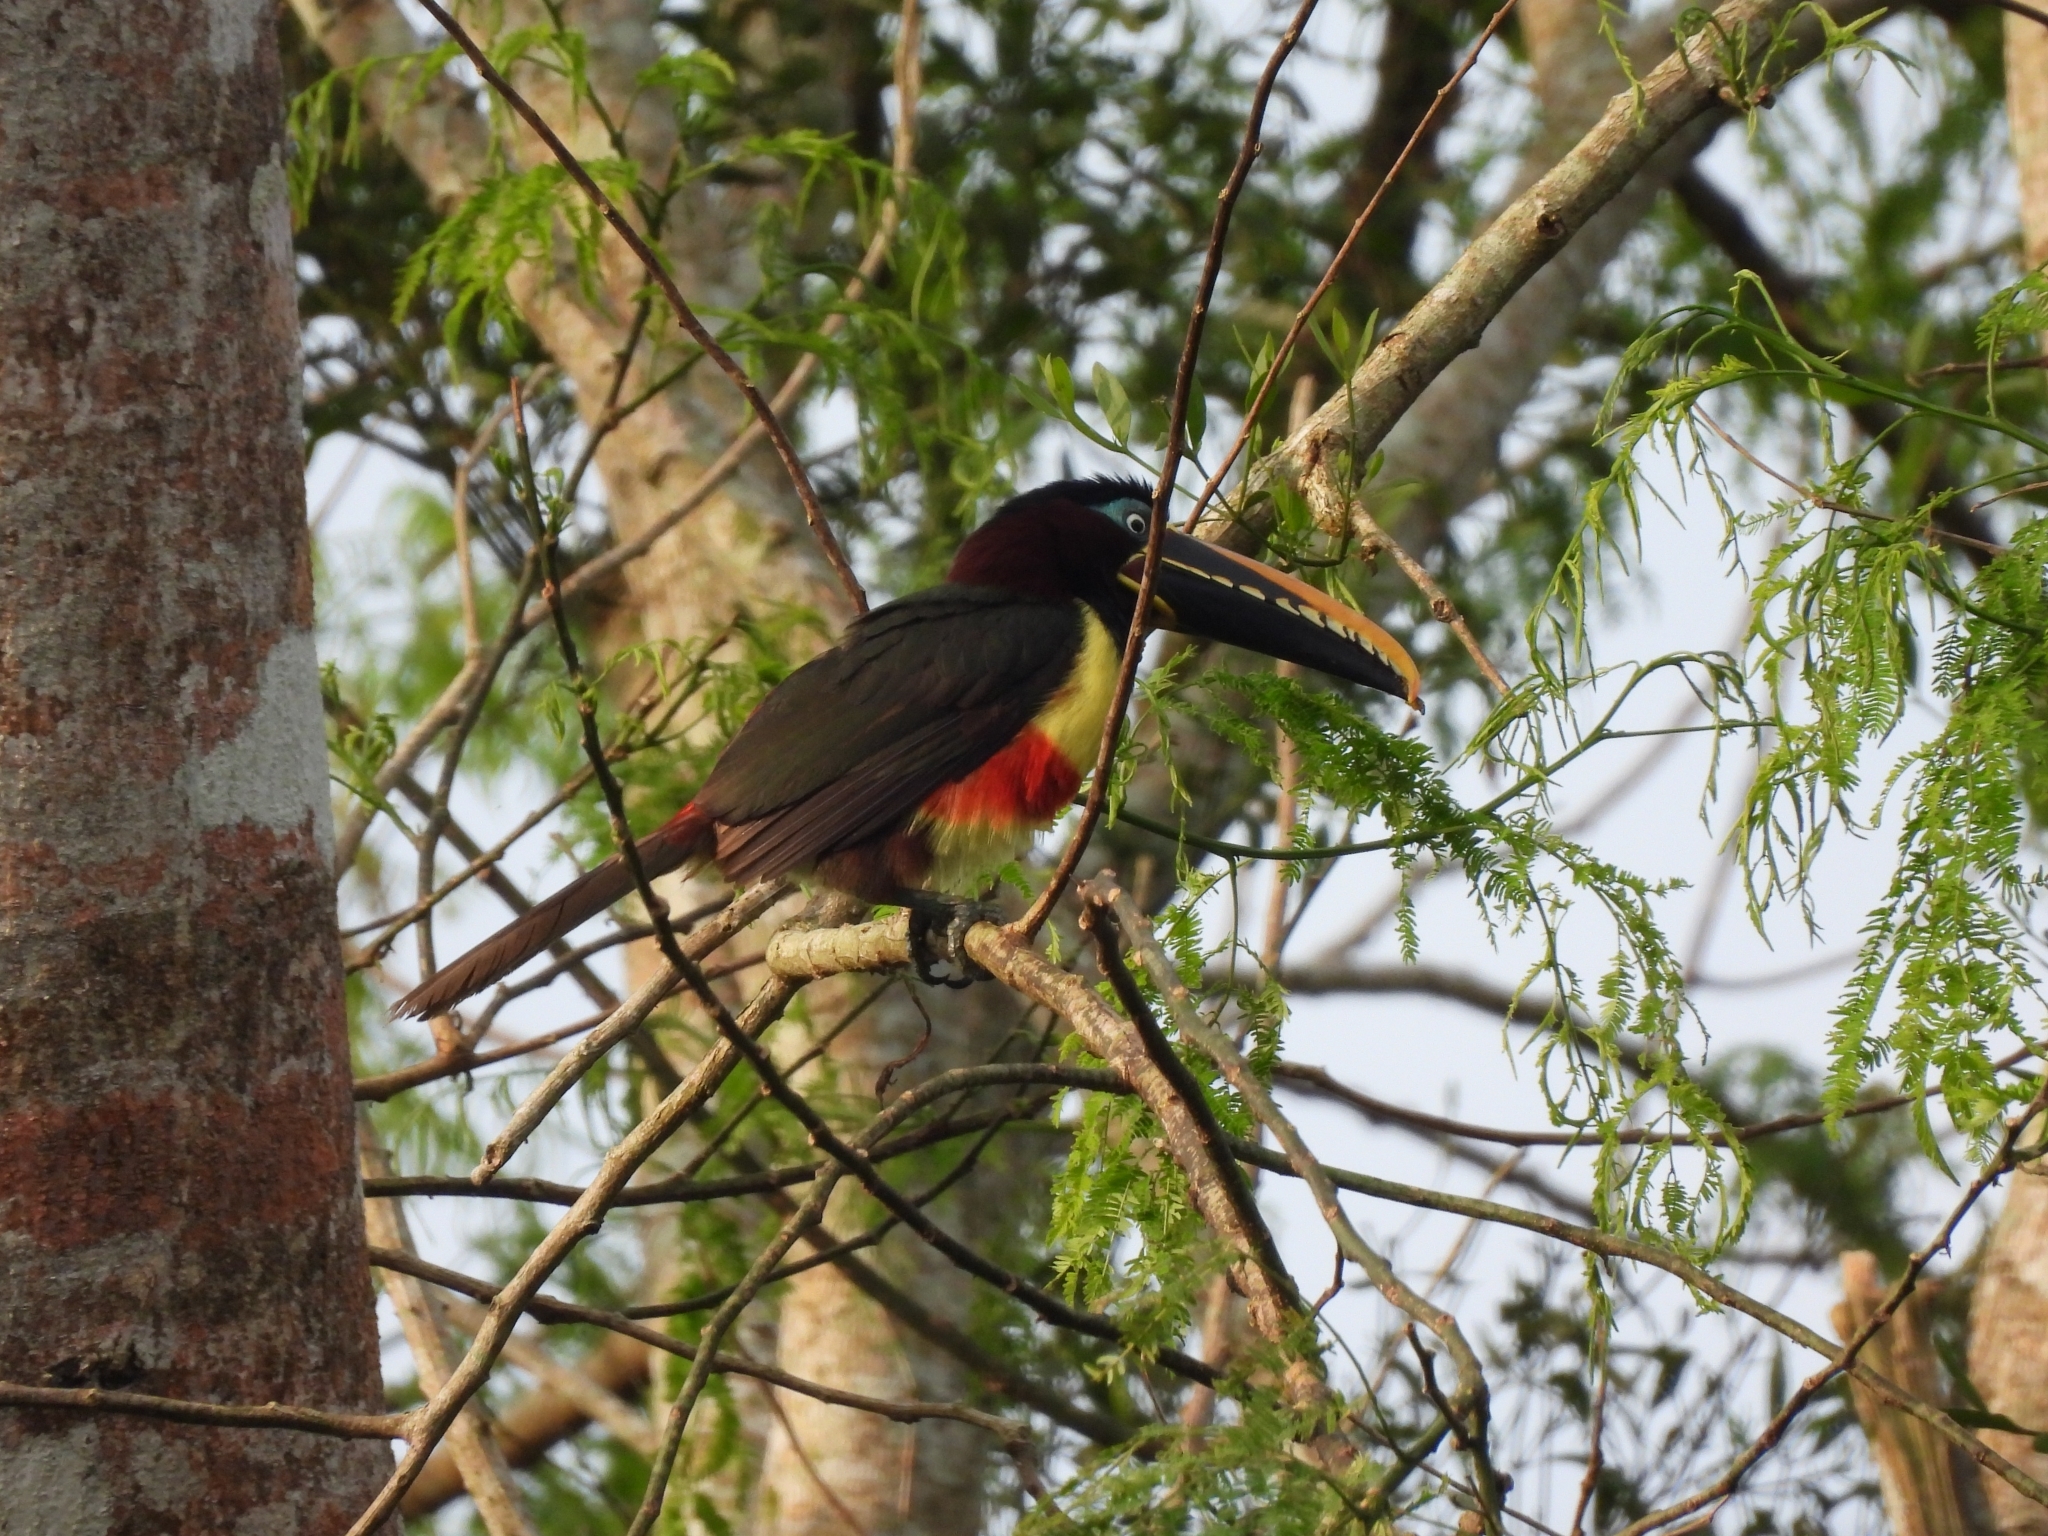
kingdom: Animalia
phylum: Chordata
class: Aves
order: Piciformes
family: Ramphastidae
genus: Pteroglossus
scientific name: Pteroglossus castanotis
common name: Chestnut-eared aracari
